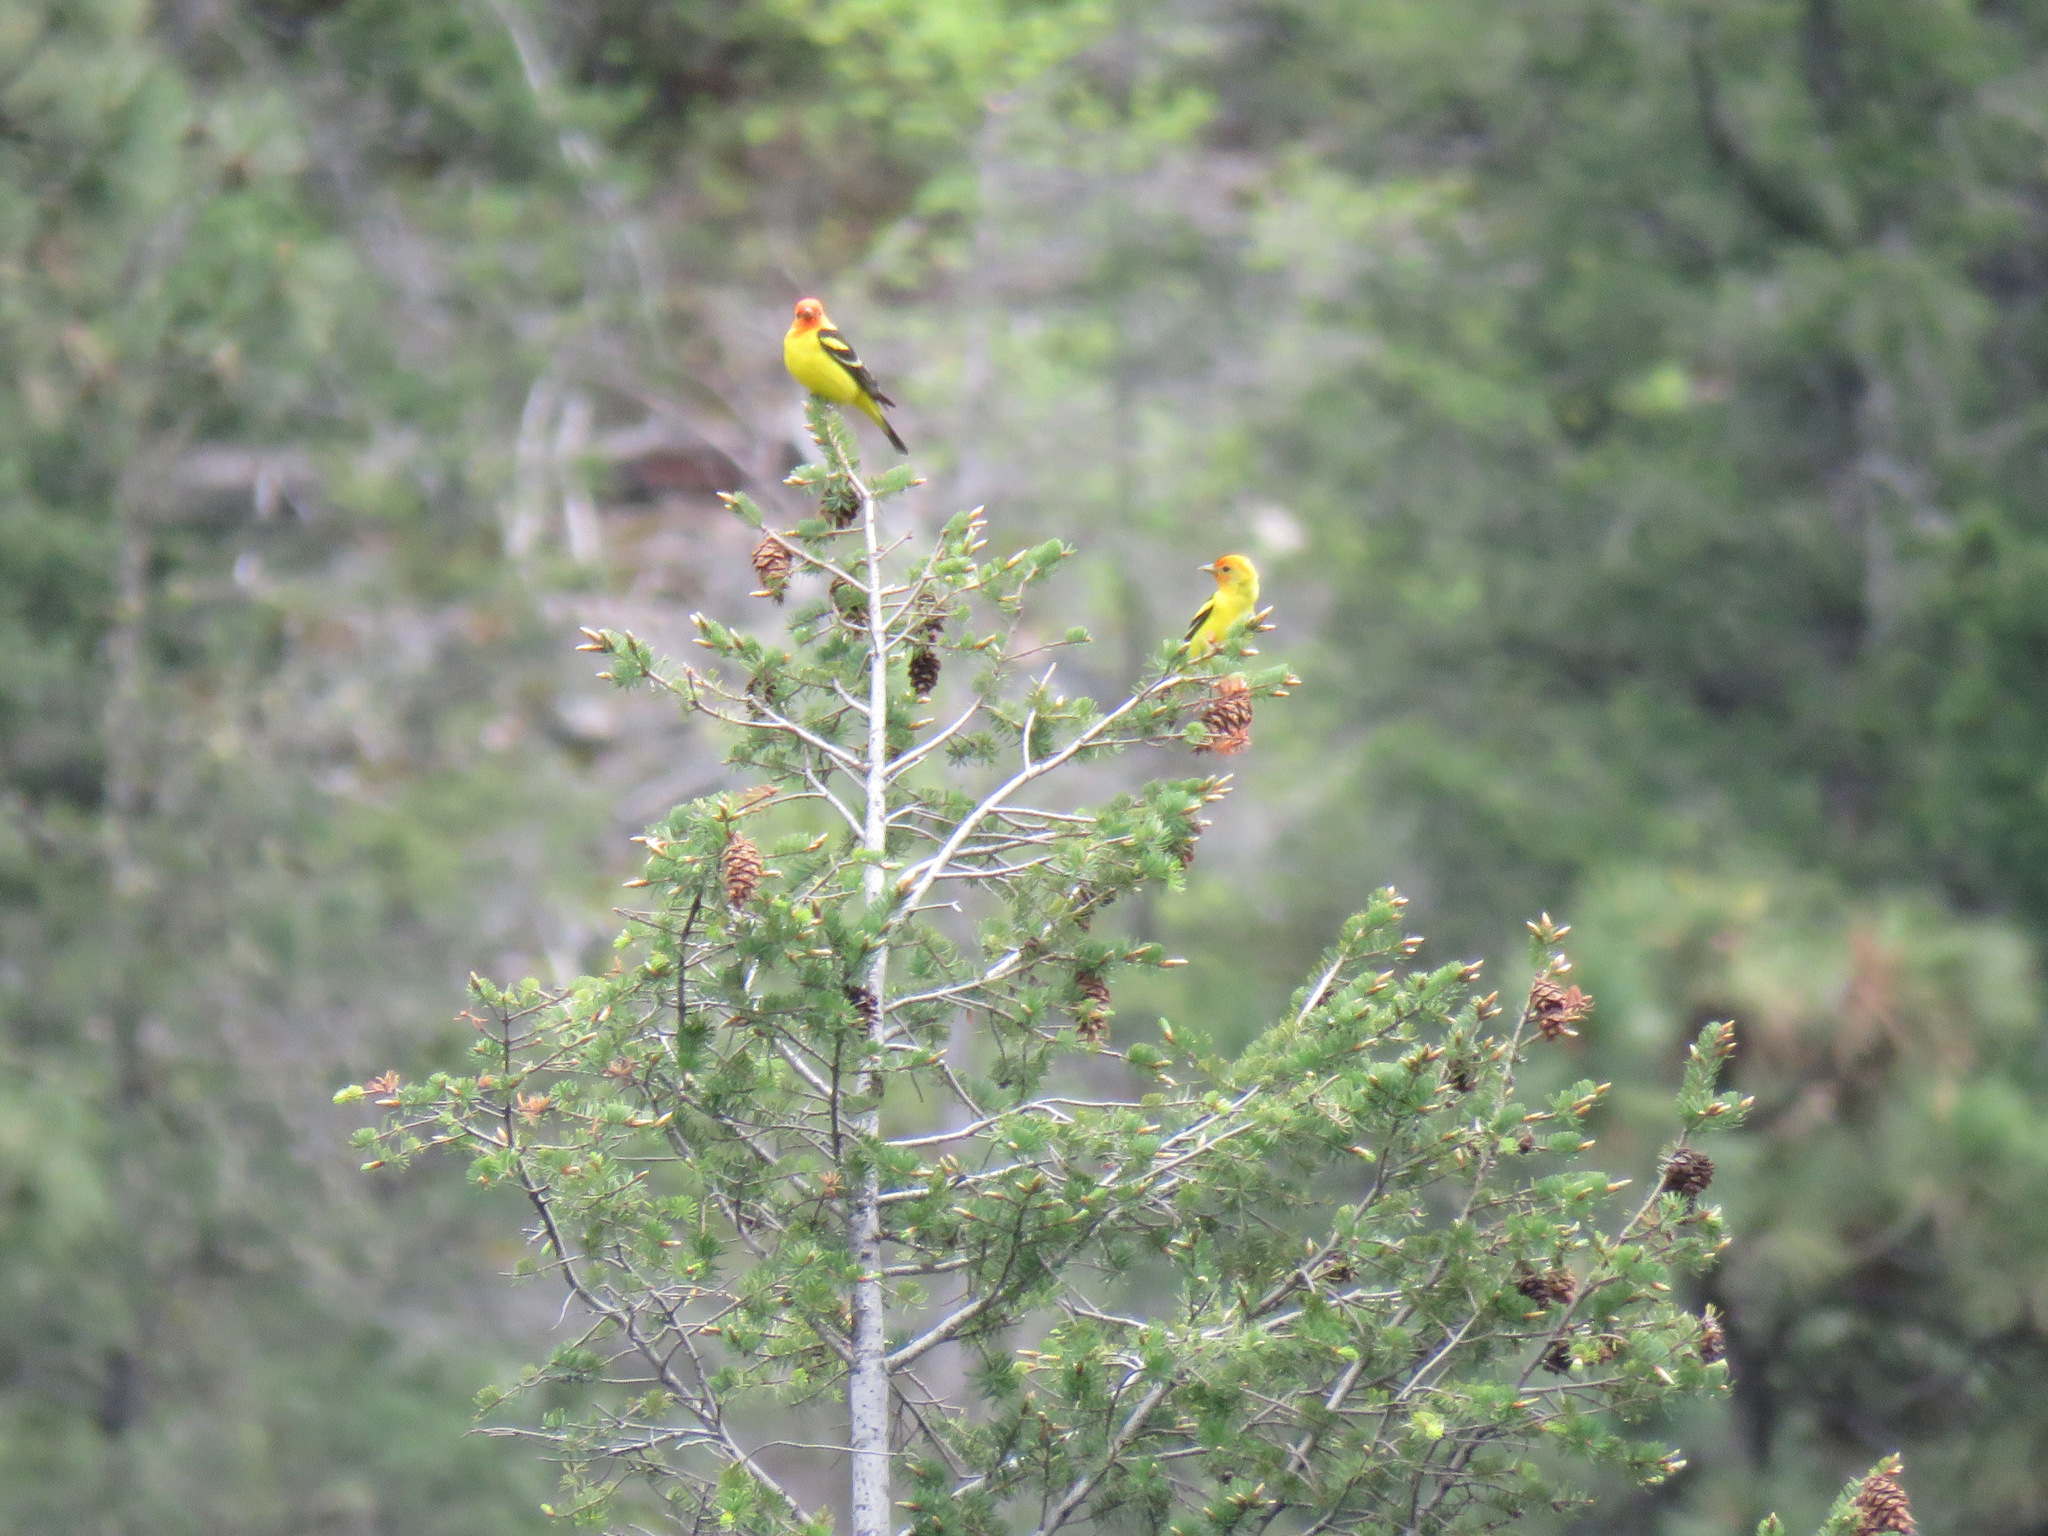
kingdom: Animalia
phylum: Chordata
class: Aves
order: Passeriformes
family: Cardinalidae
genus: Piranga
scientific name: Piranga ludoviciana
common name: Western tanager
